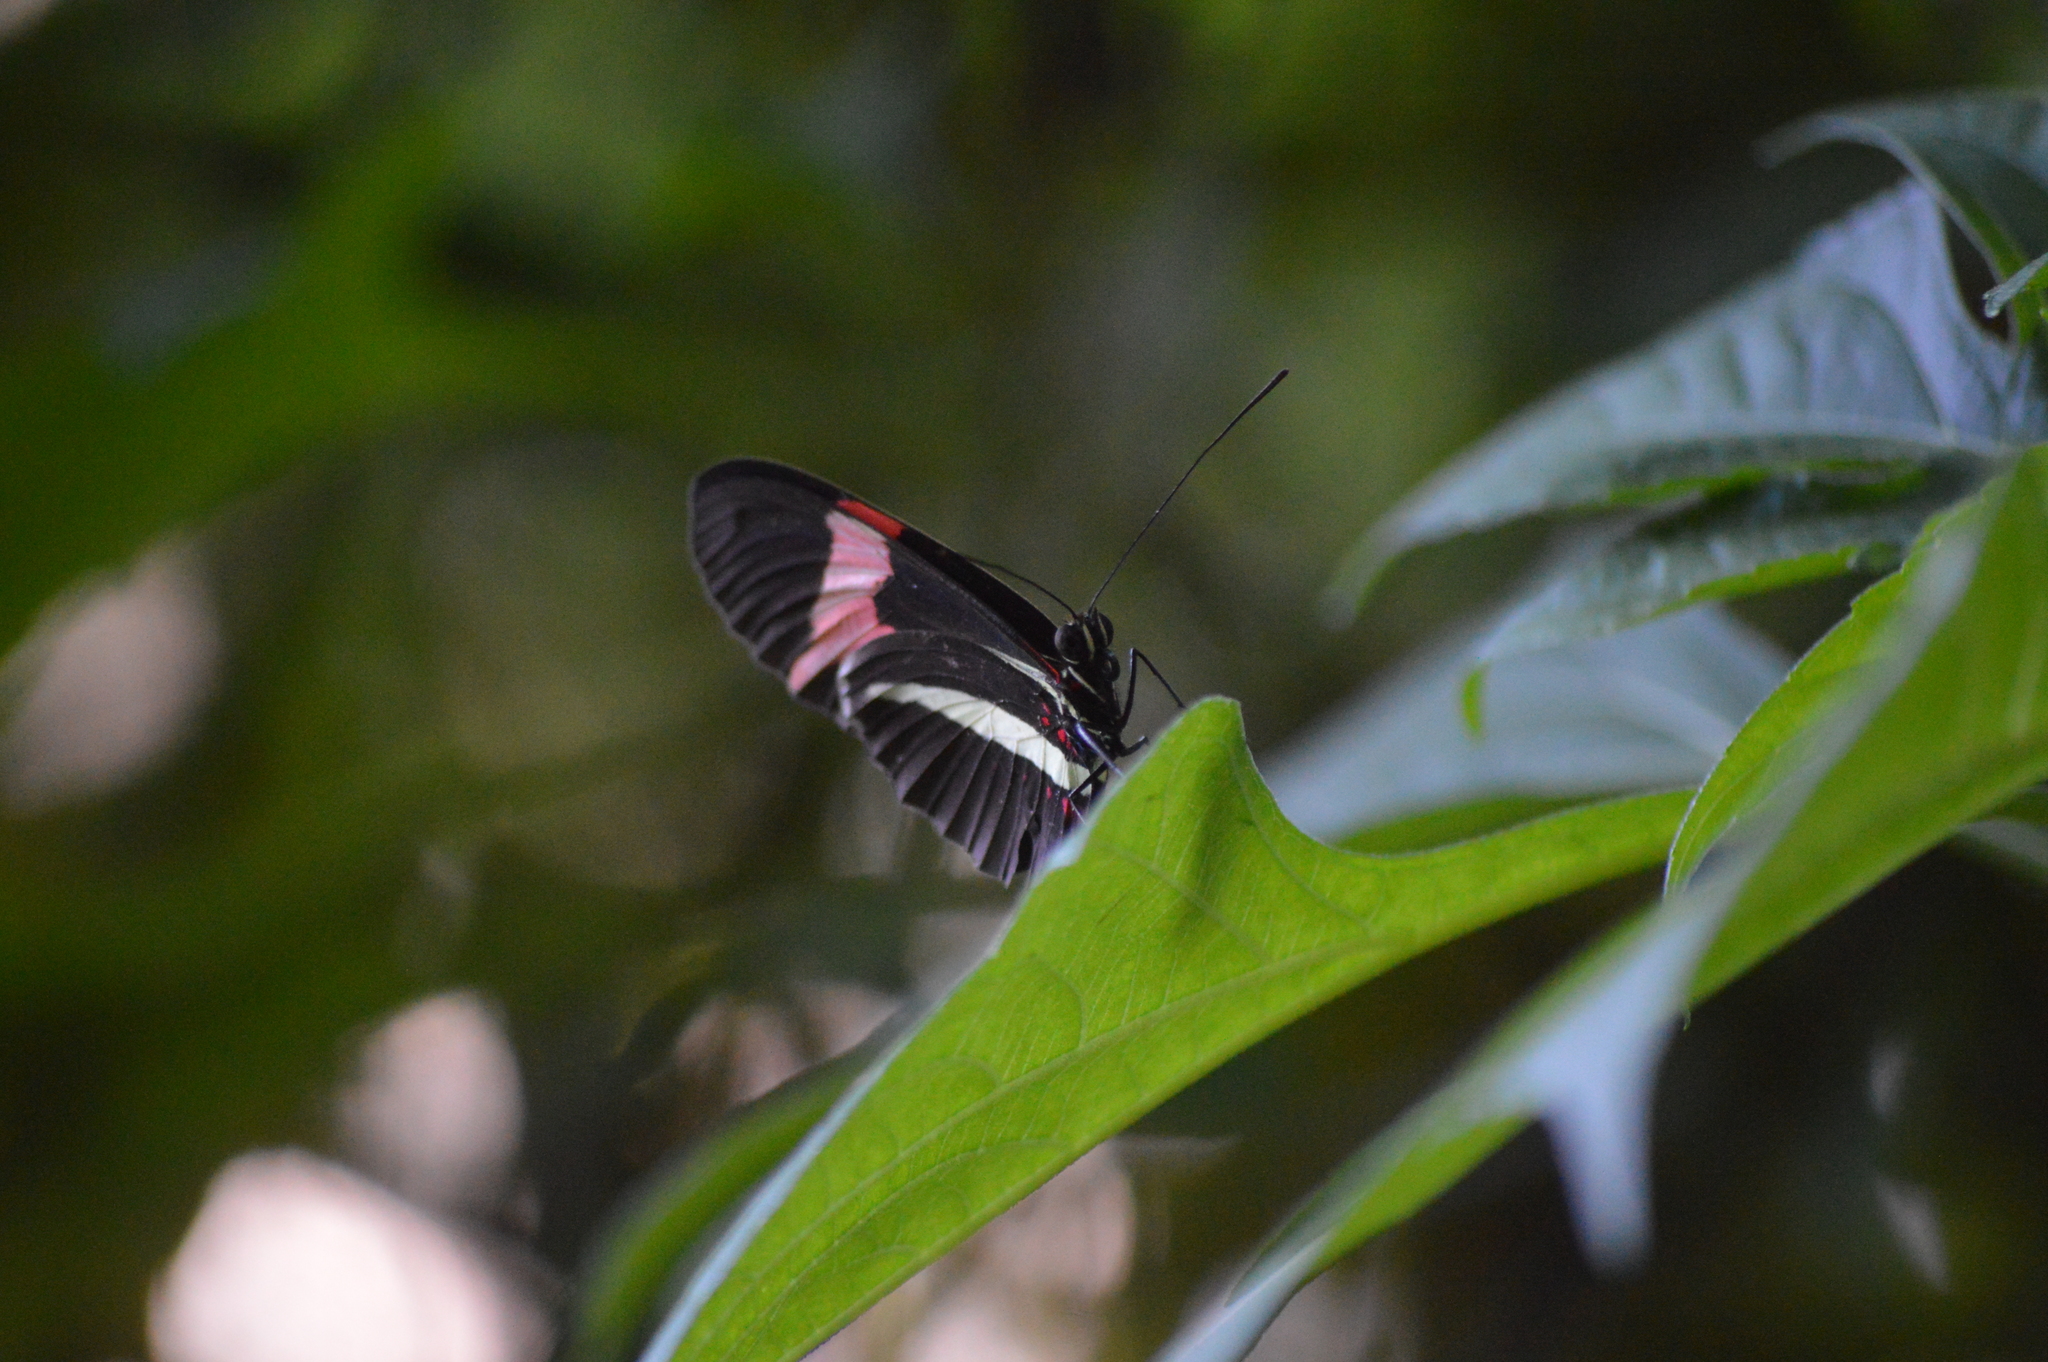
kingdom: Animalia
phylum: Arthropoda
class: Insecta
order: Lepidoptera
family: Nymphalidae
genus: Heliconius
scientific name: Heliconius erato
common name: Common patch longwing
